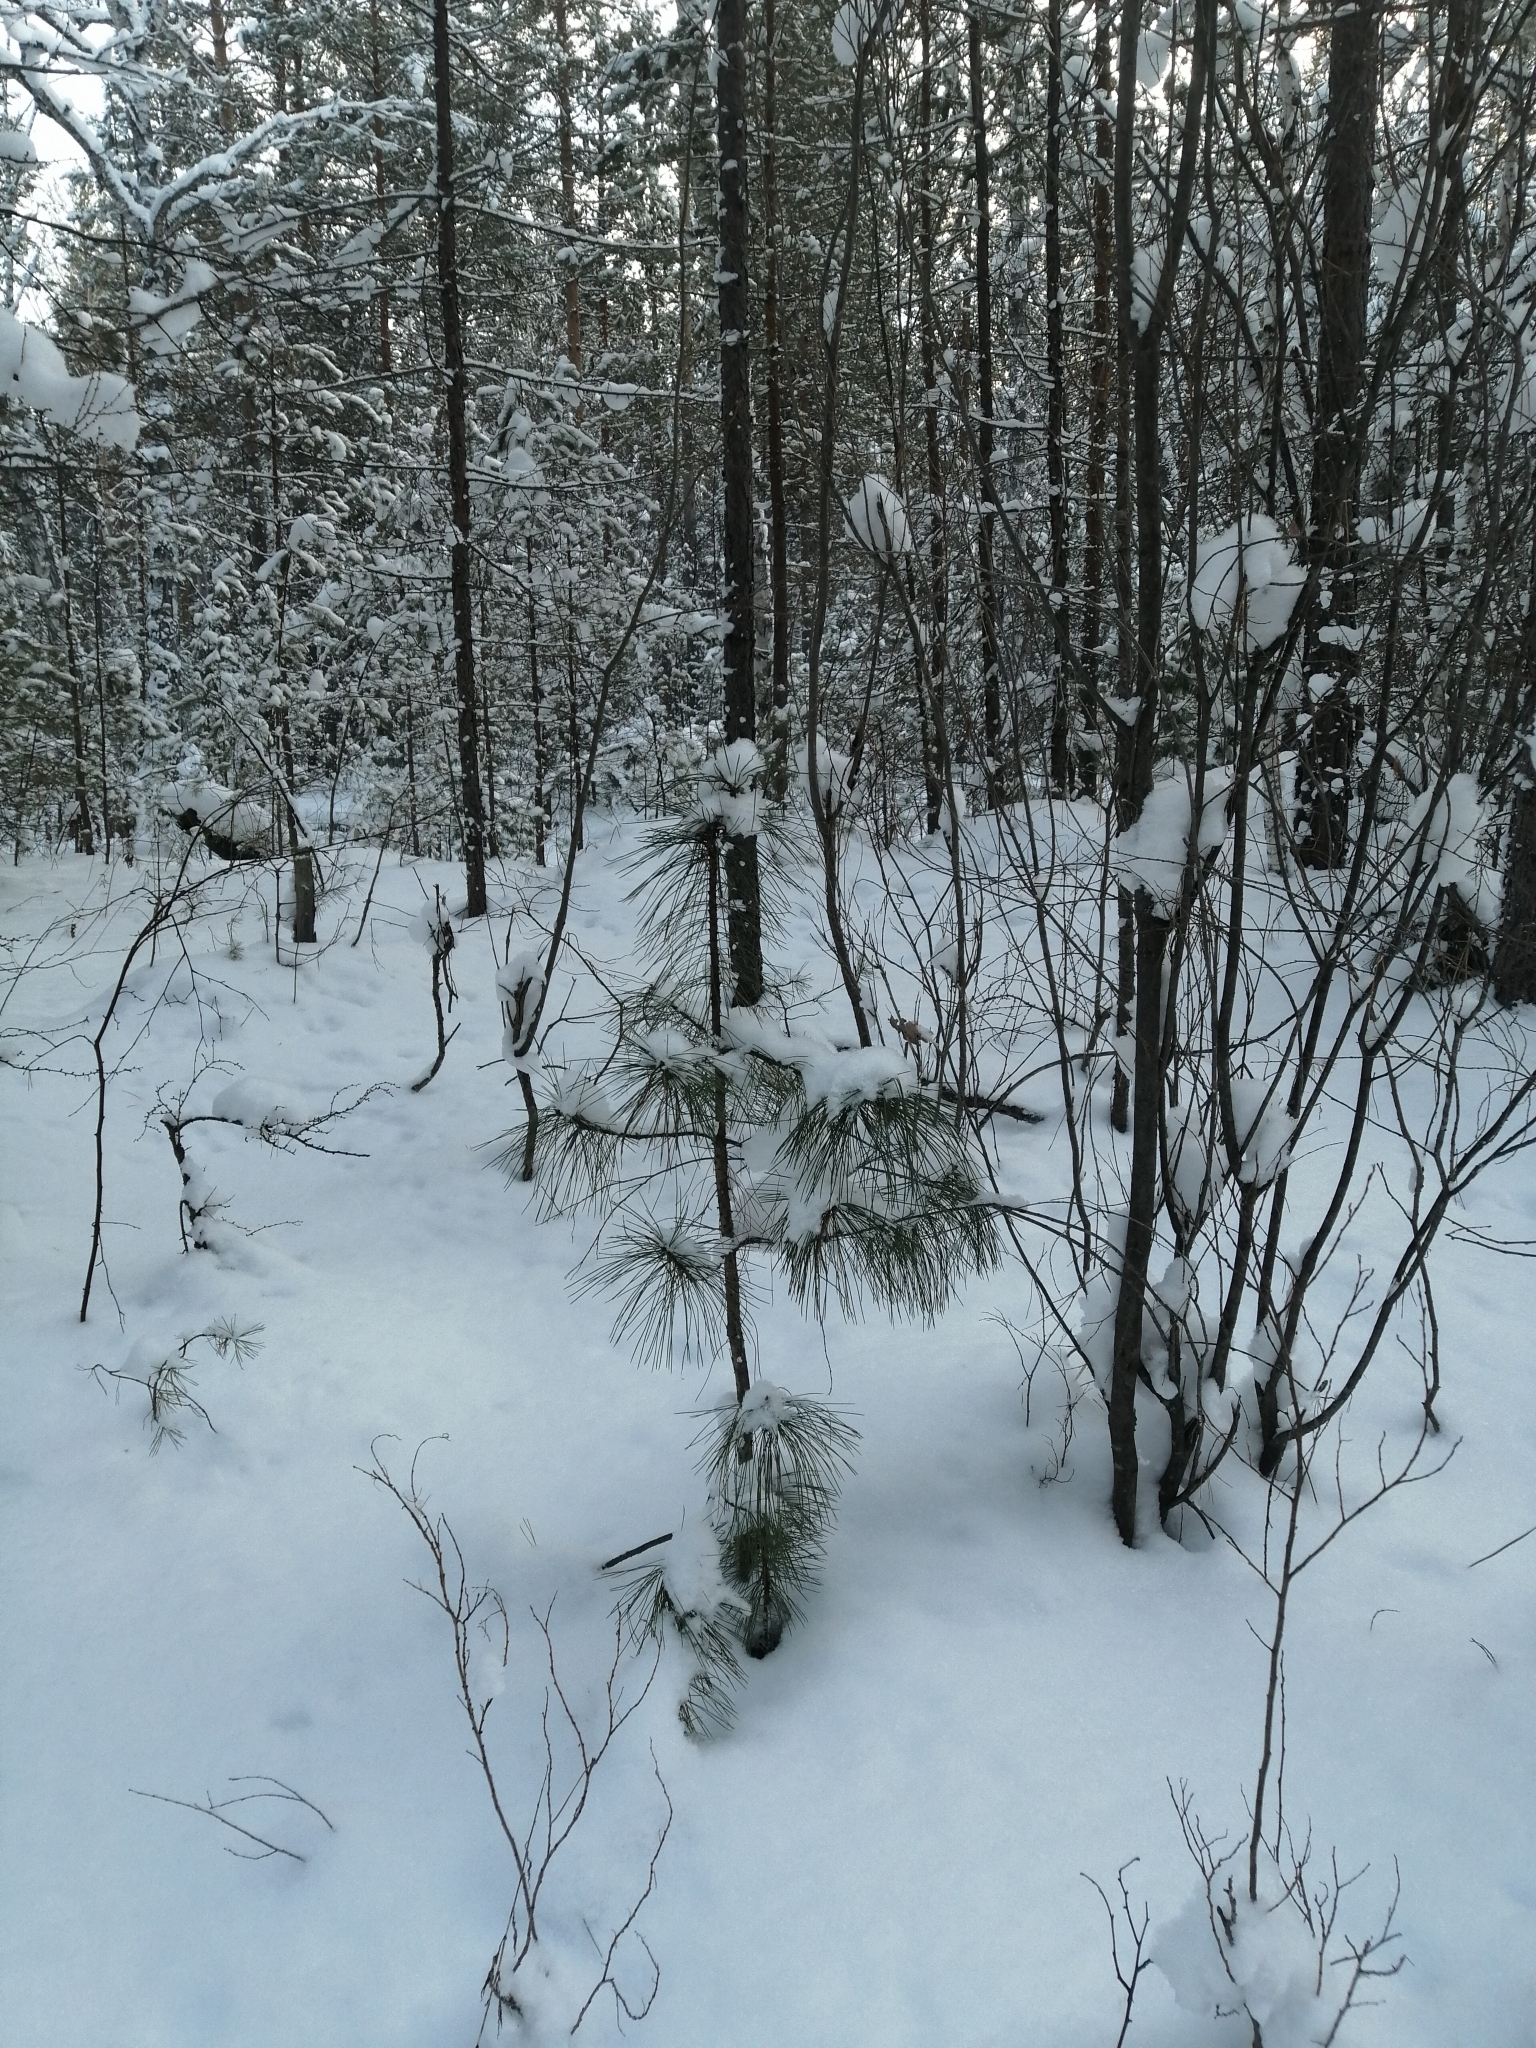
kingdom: Plantae
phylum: Tracheophyta
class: Pinopsida
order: Pinales
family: Pinaceae
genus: Pinus
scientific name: Pinus sibirica
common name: Siberian pine
